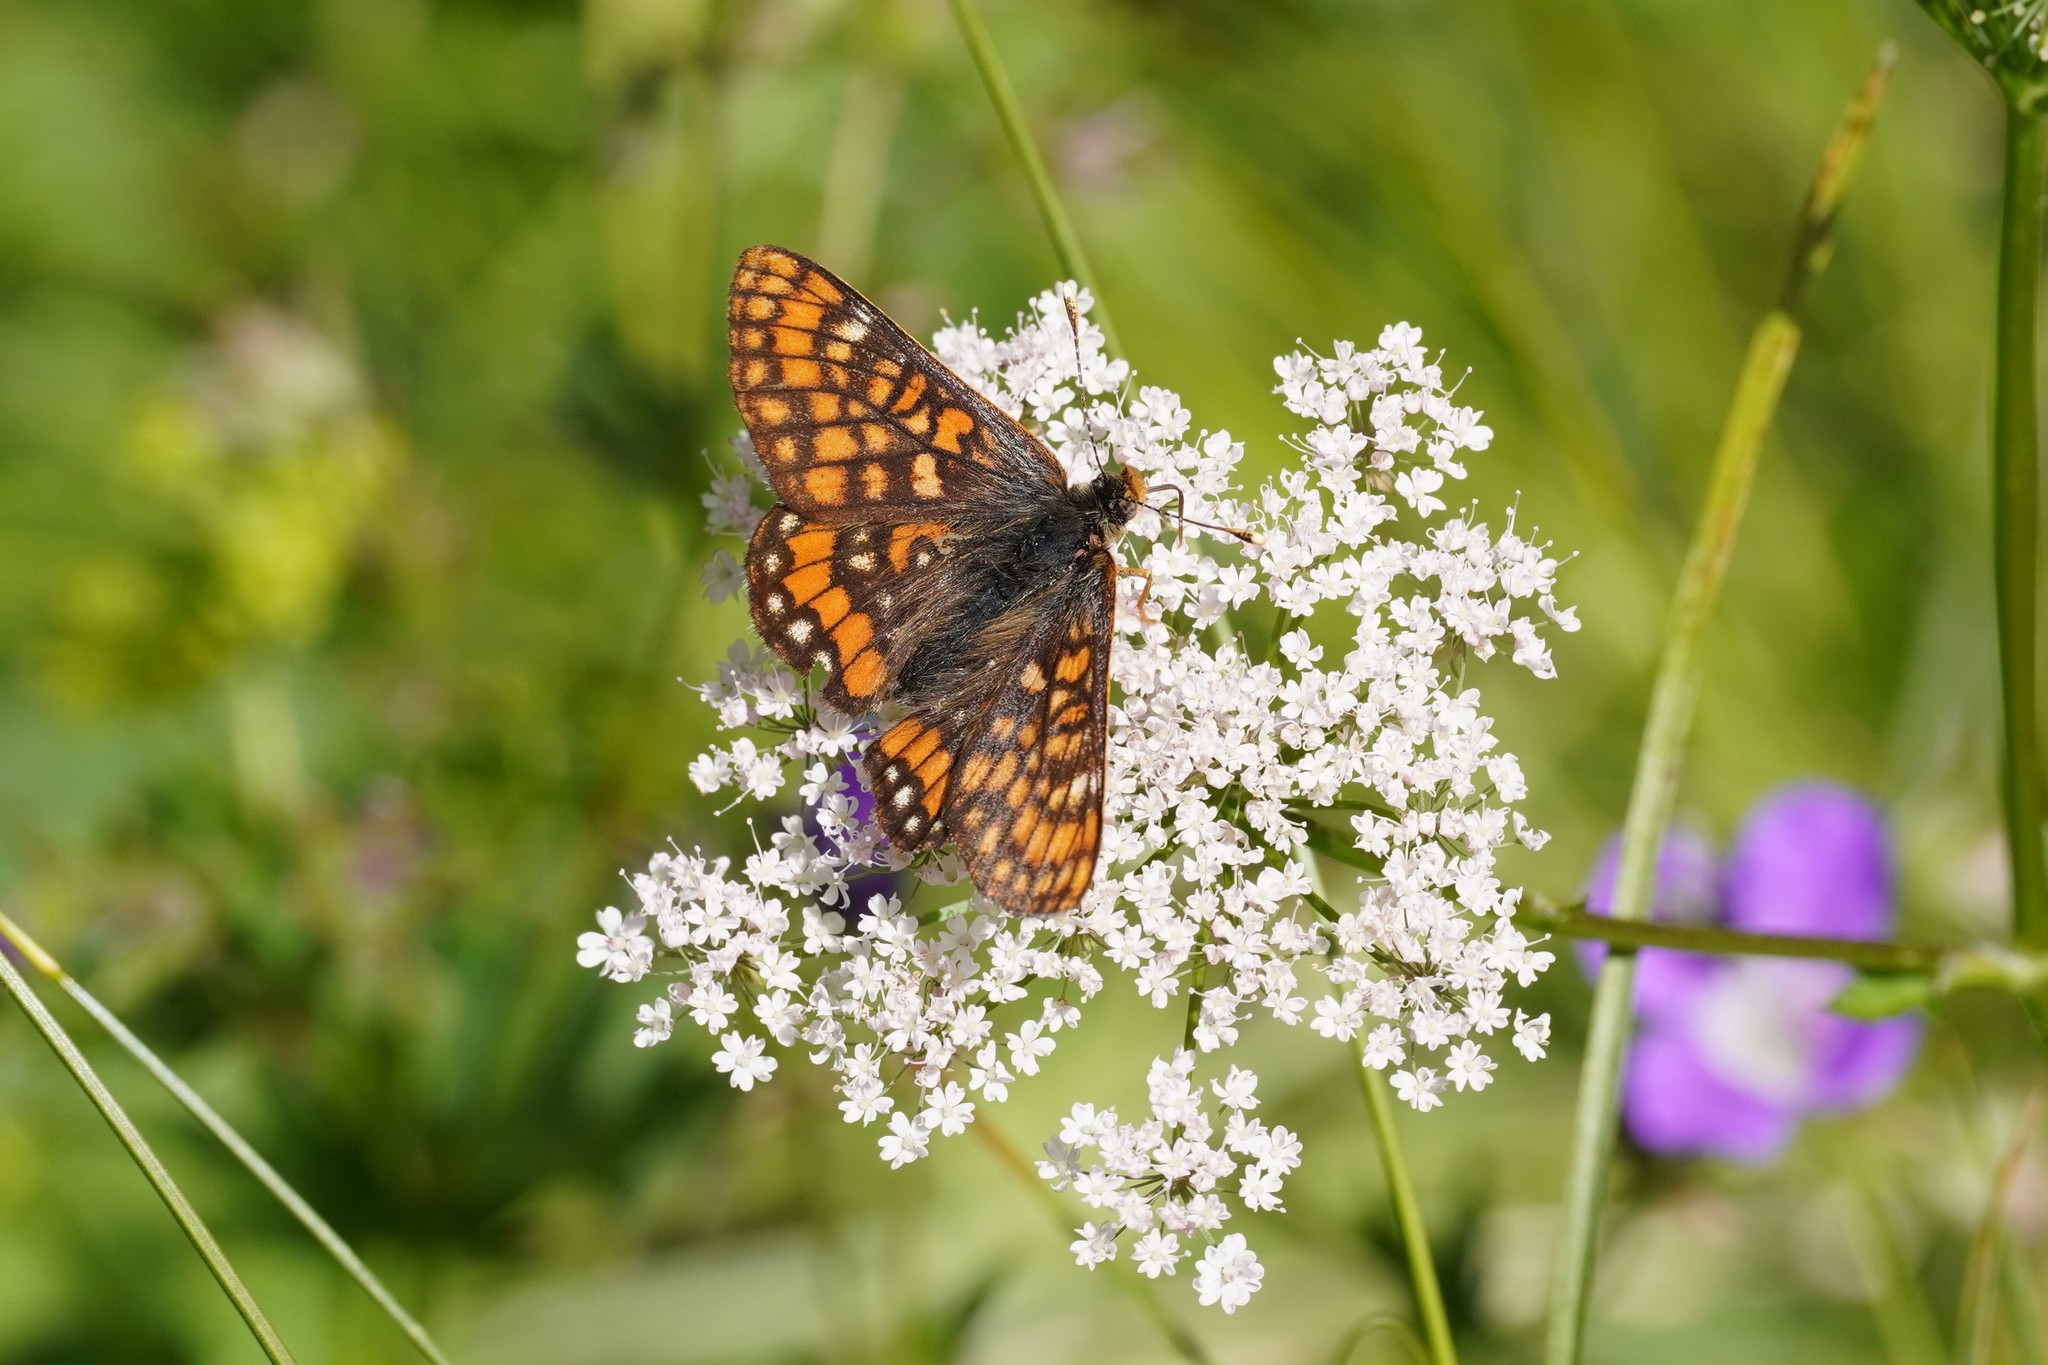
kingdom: Animalia
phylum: Arthropoda
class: Insecta
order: Lepidoptera
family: Nymphalidae
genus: Hypodryas
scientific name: Hypodryas intermedia
